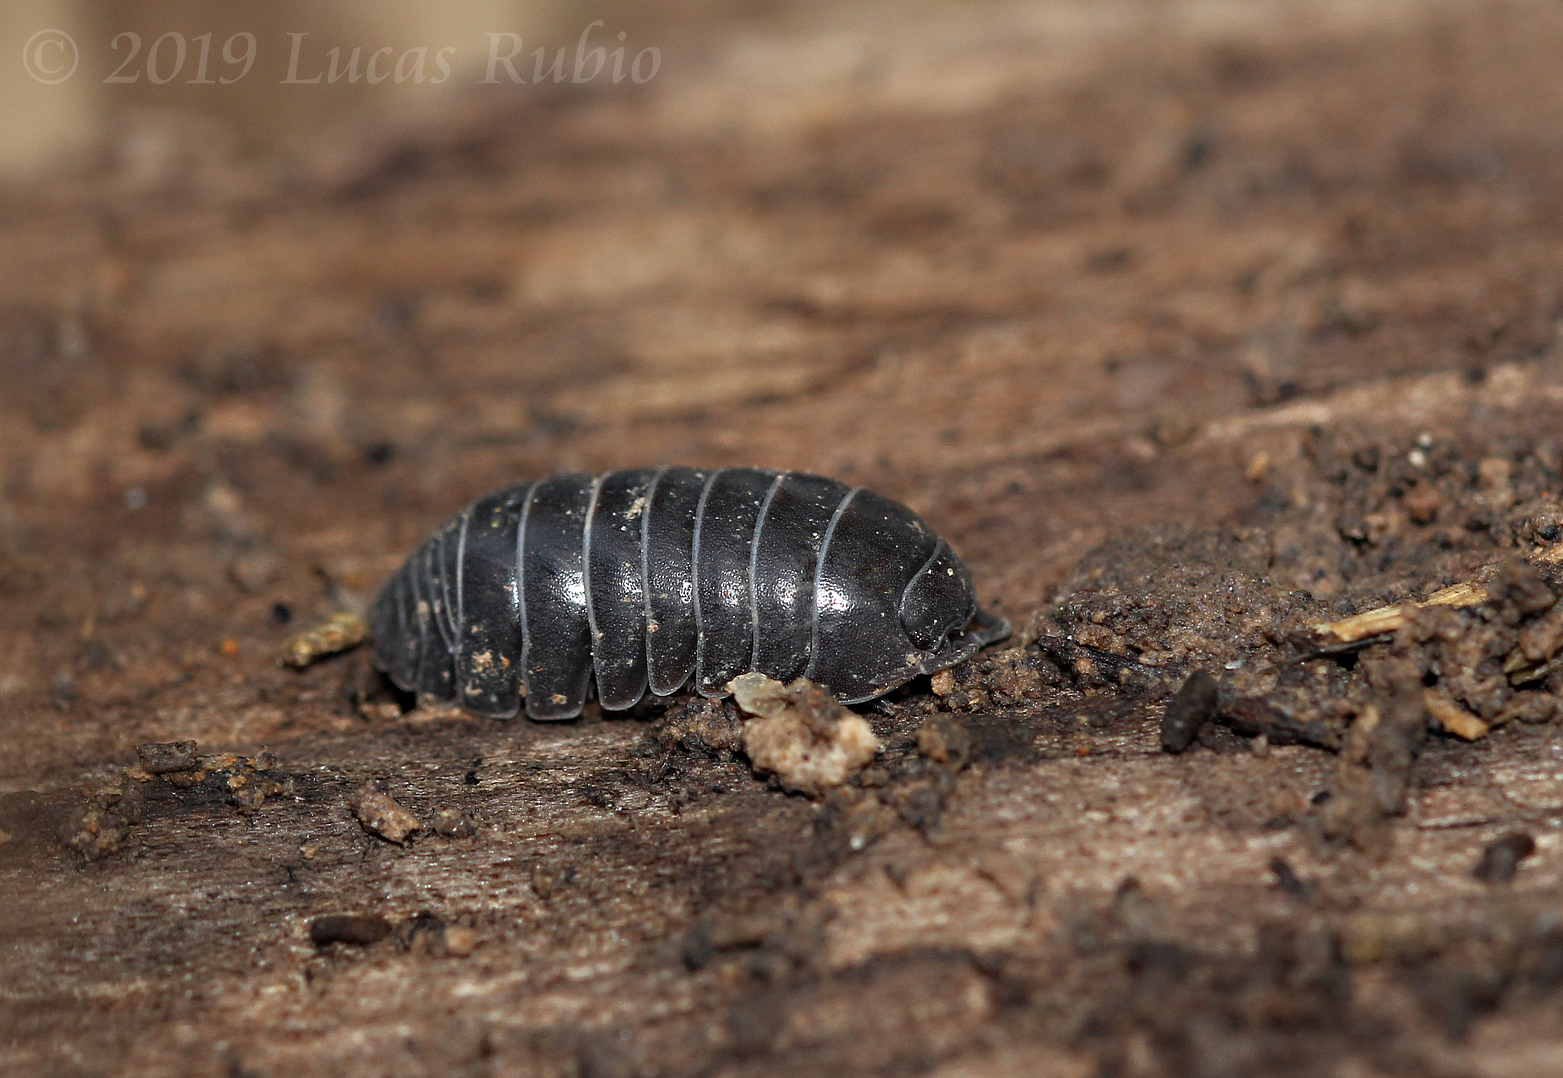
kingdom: Animalia
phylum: Arthropoda
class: Malacostraca
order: Isopoda
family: Armadillidiidae
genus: Armadillidium
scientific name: Armadillidium vulgare
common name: Common pill woodlouse
